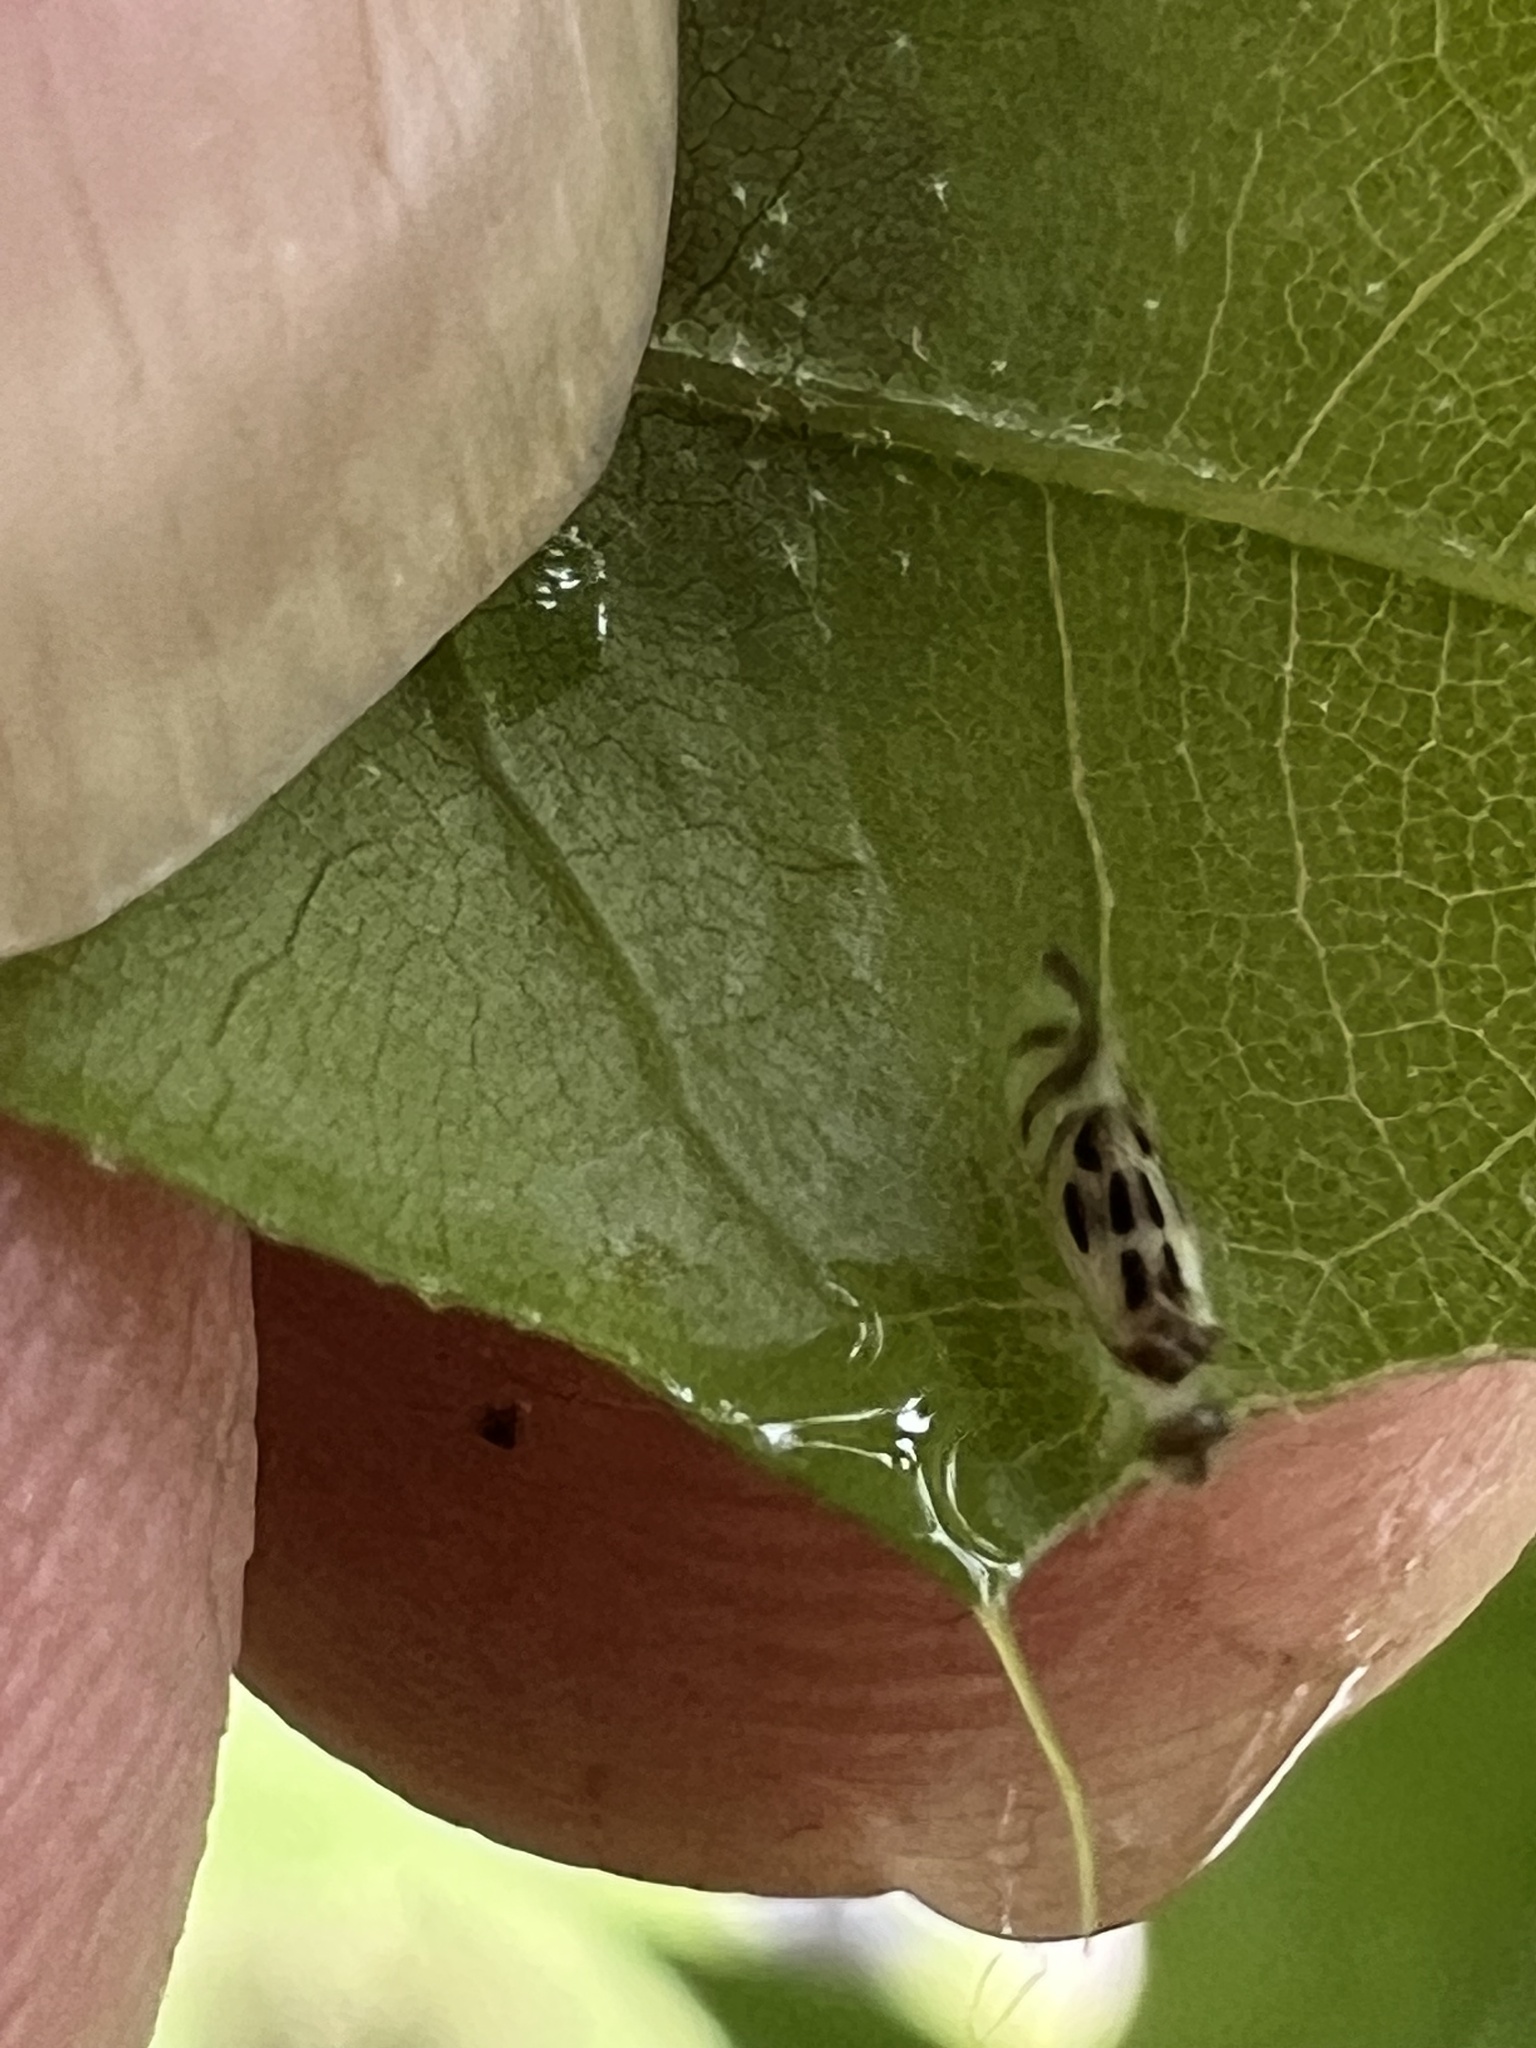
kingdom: Animalia
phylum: Arthropoda
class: Insecta
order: Psocodea
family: Stenopsocidae
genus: Graphopsocus
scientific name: Graphopsocus cruciatus
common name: Lizard bark louse
